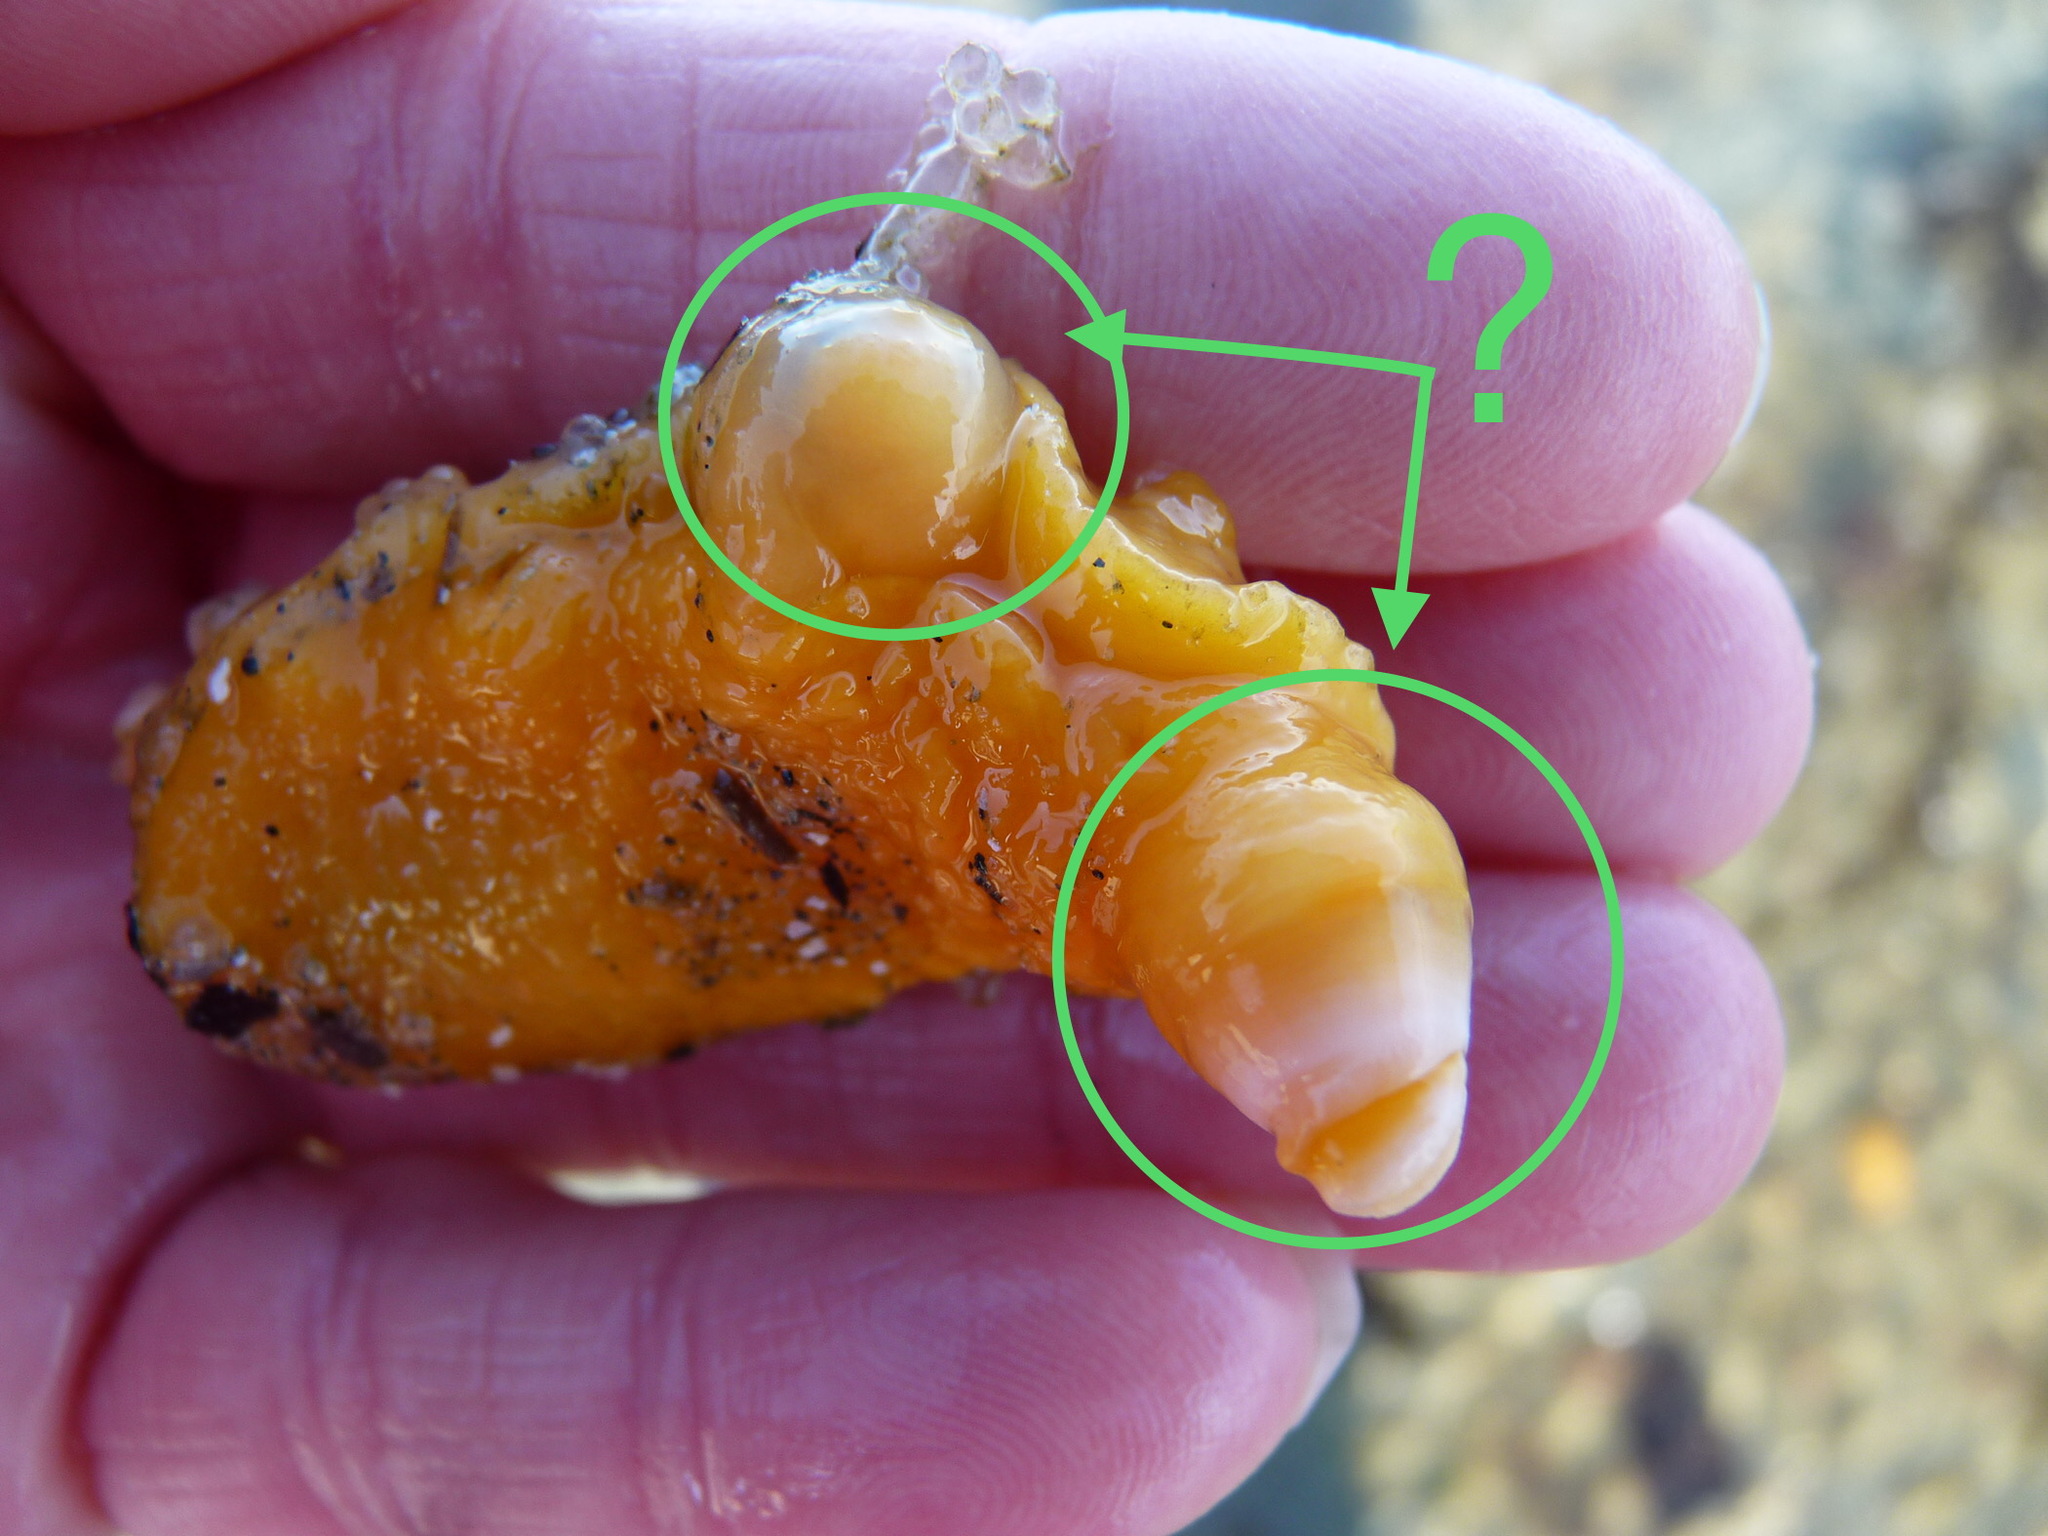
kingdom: Animalia
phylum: Mollusca
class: Gastropoda
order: Nudibranchia
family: Dorididae
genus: Doris
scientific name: Doris montereyensis
